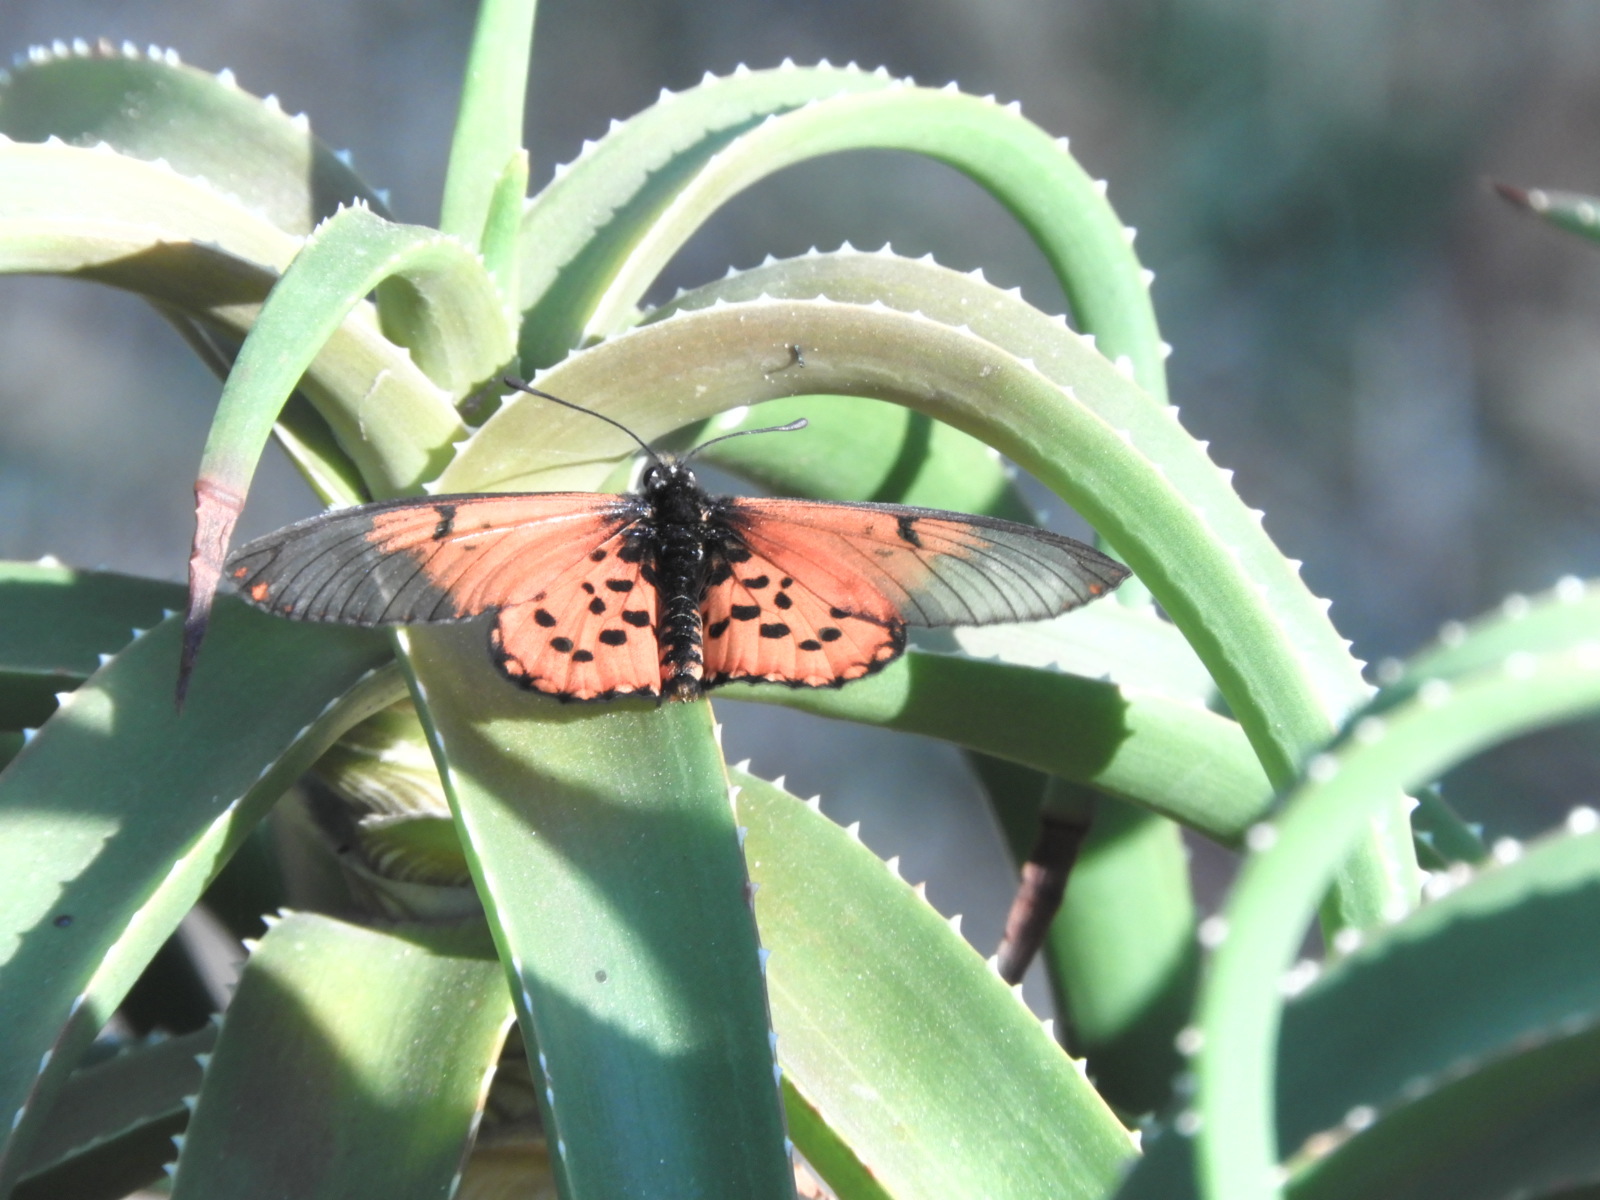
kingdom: Animalia
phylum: Arthropoda
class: Insecta
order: Lepidoptera
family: Nymphalidae
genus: Acraea
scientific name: Acraea horta
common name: Garden acraea
